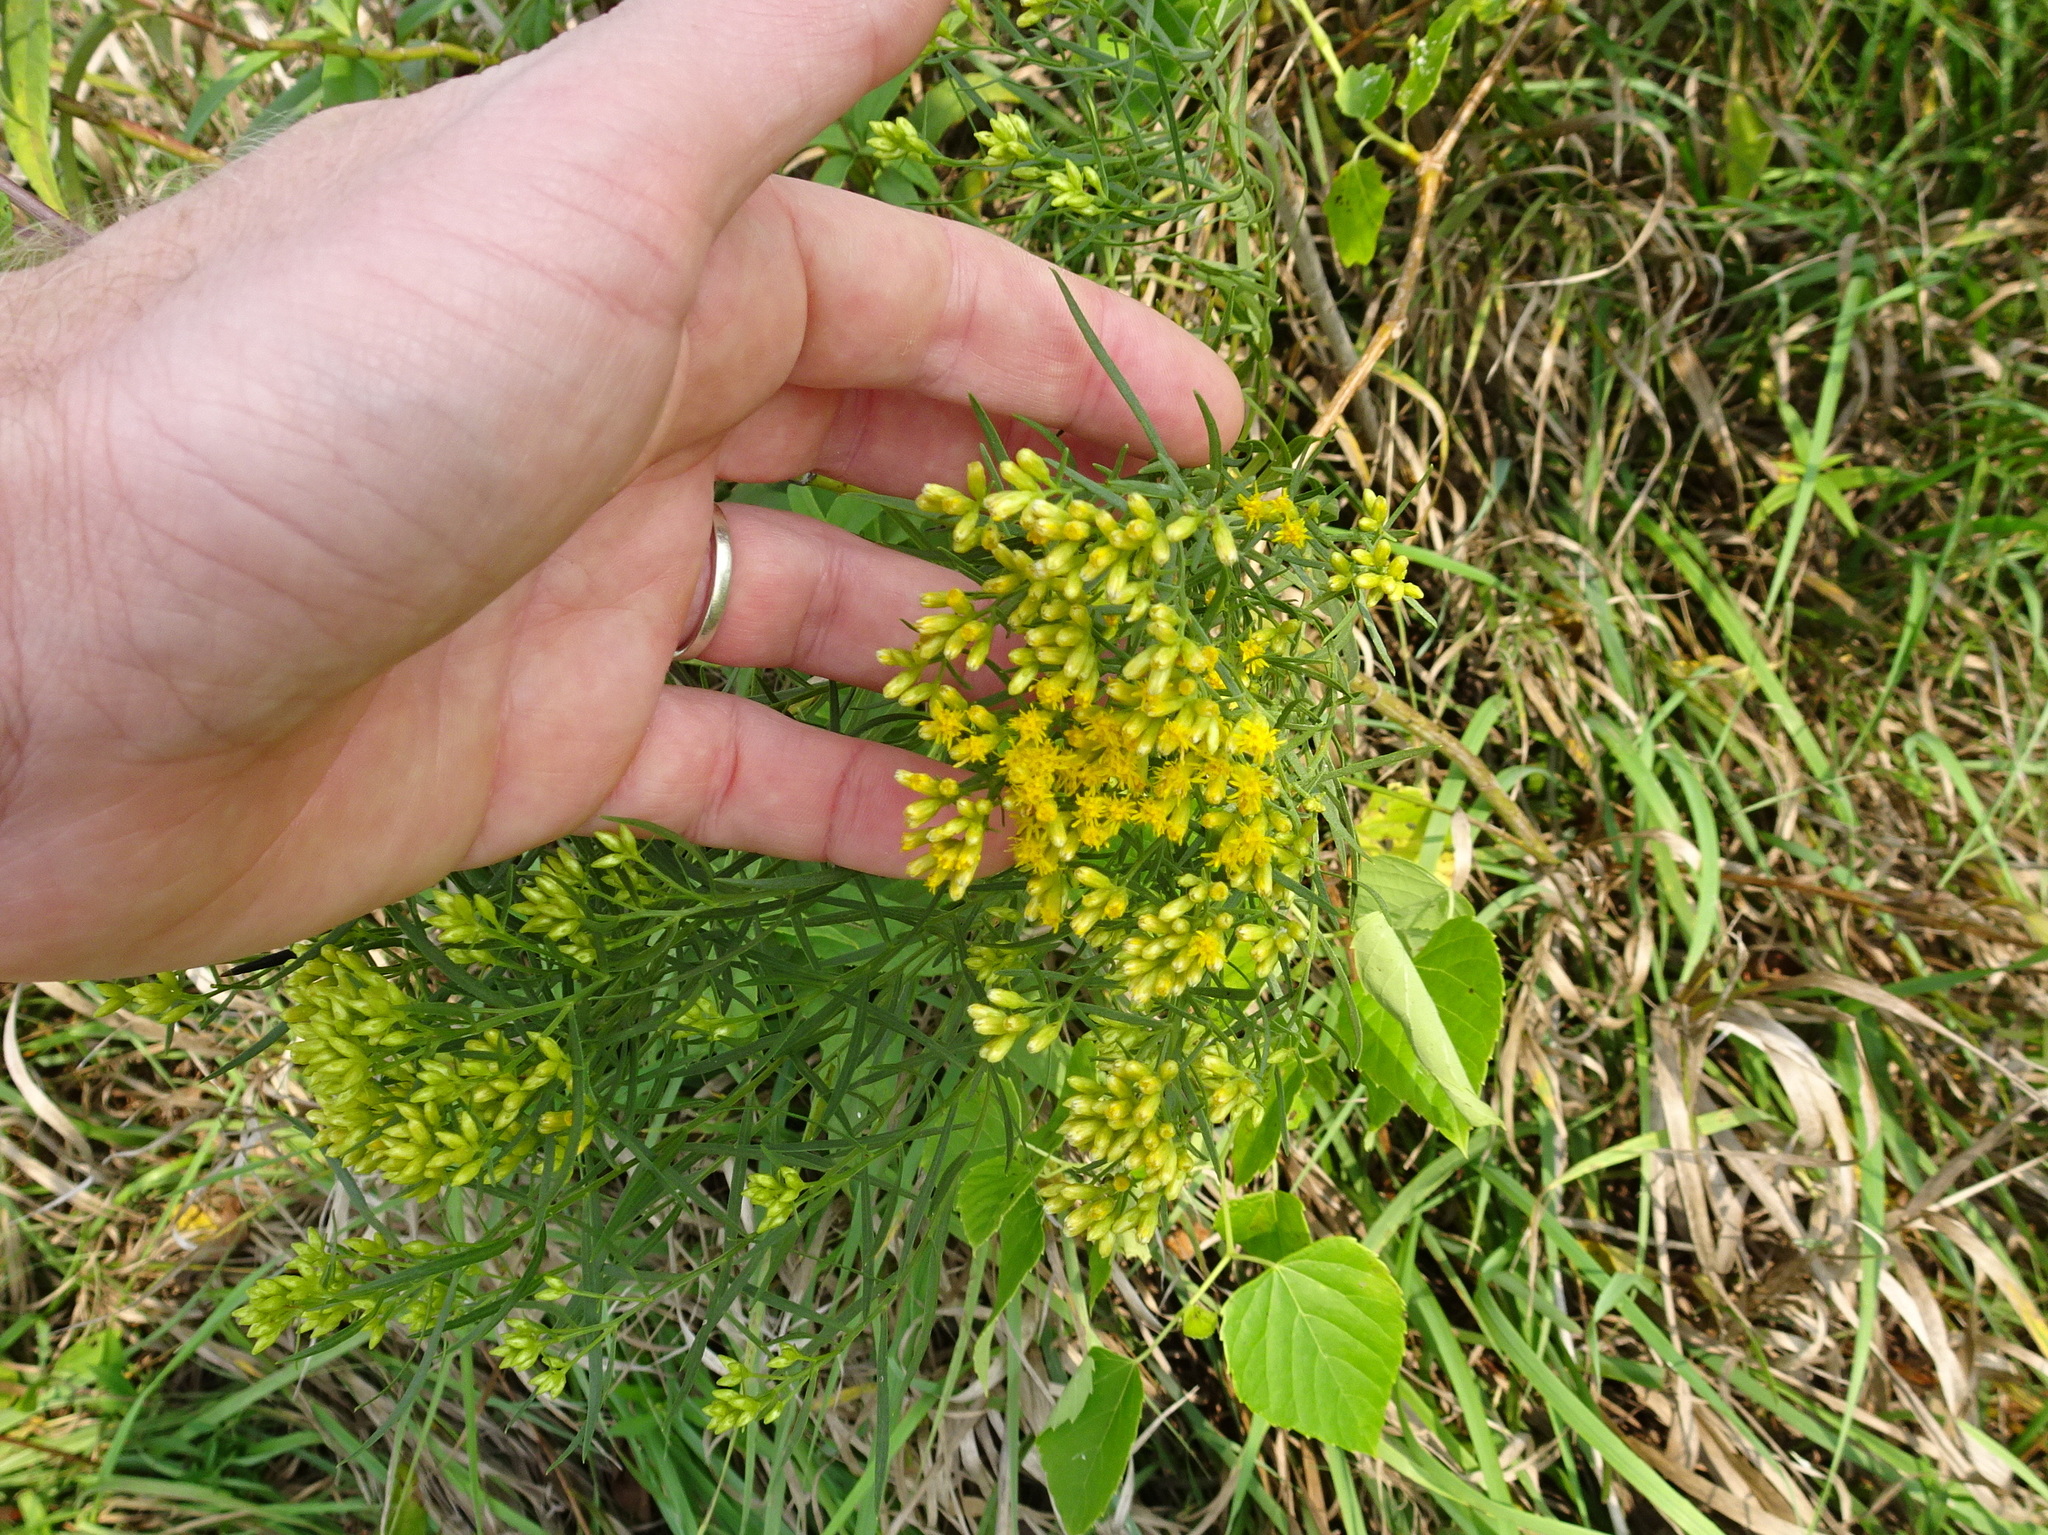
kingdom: Plantae
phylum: Tracheophyta
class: Magnoliopsida
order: Asterales
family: Asteraceae
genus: Euthamia
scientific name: Euthamia gymnospermoides
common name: Great plains goldentop
